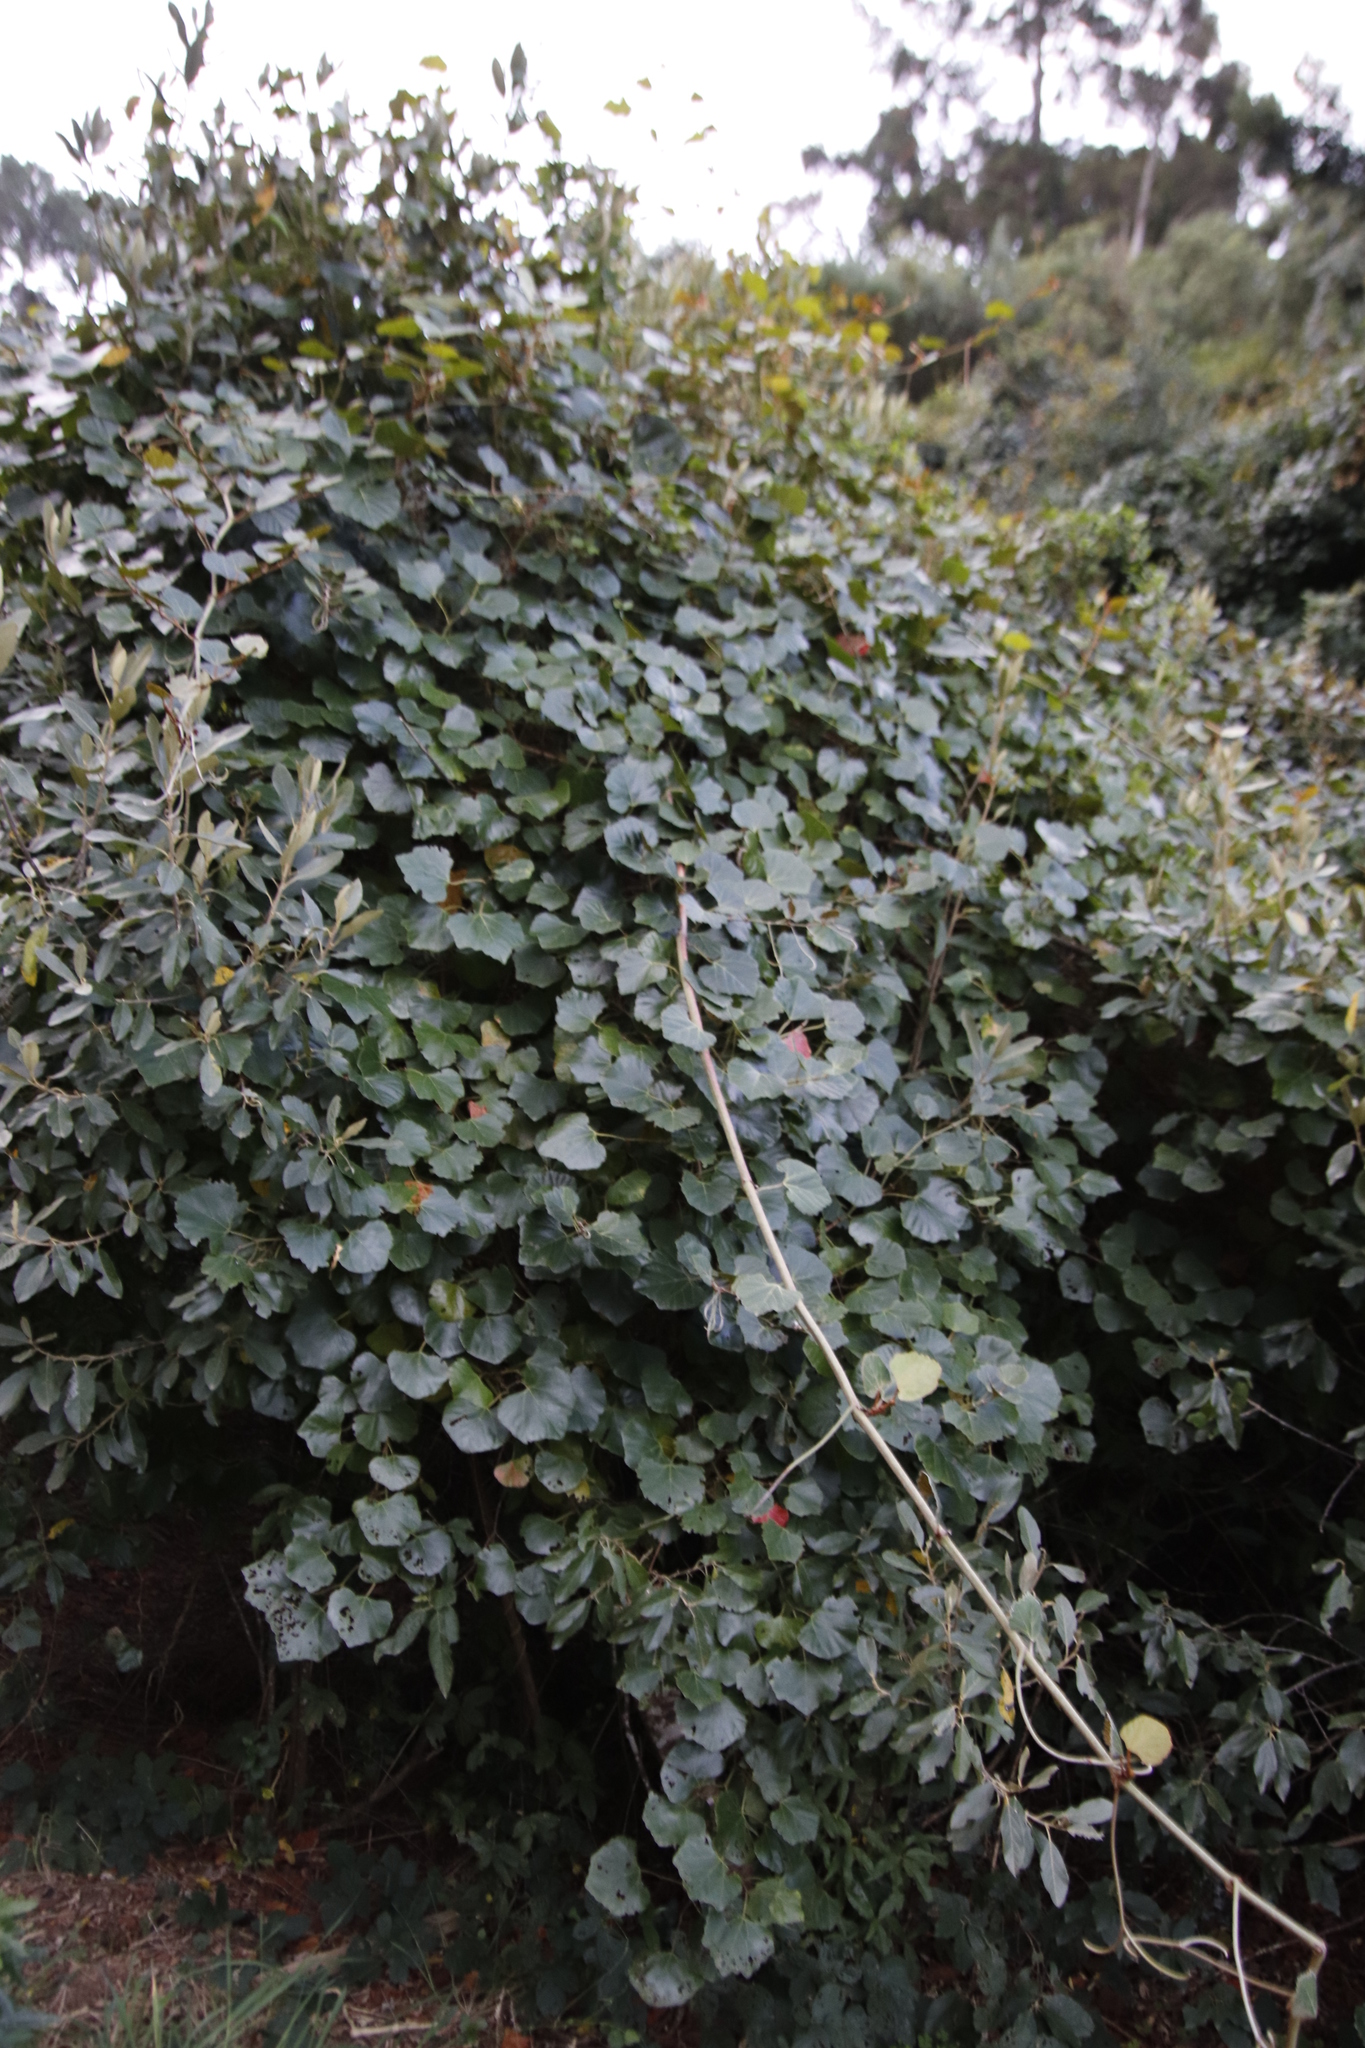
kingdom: Plantae
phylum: Tracheophyta
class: Magnoliopsida
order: Vitales
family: Vitaceae
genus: Rhoicissus
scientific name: Rhoicissus tomentosa
